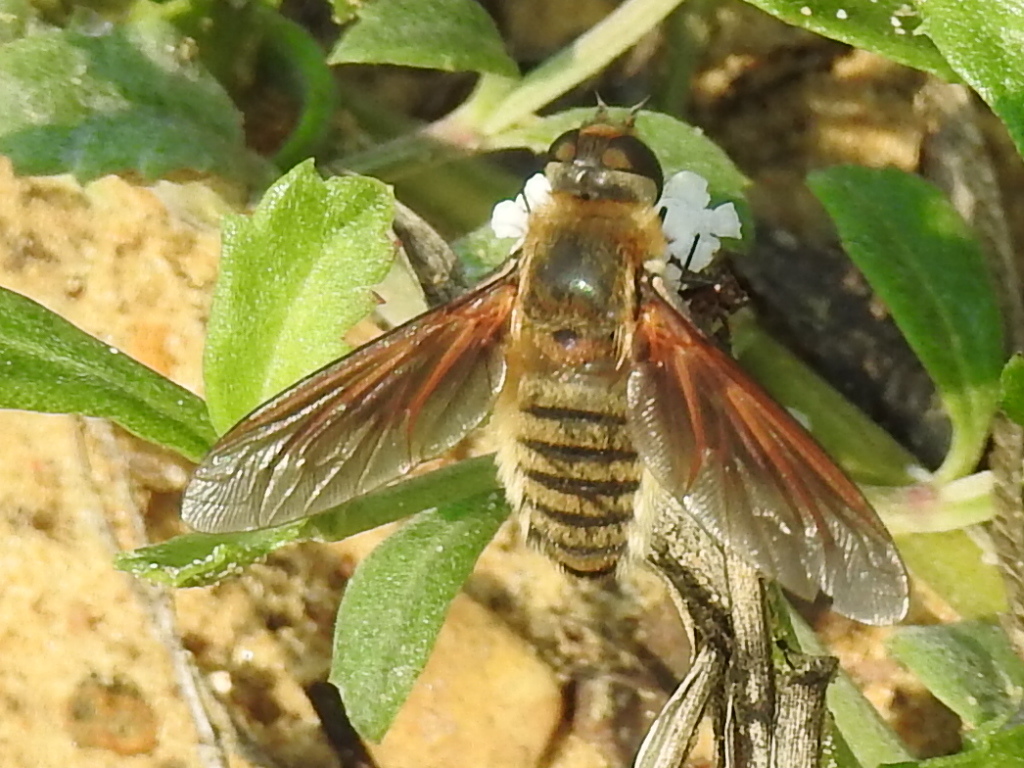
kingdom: Animalia
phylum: Arthropoda
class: Insecta
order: Diptera
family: Bombyliidae
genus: Poecilanthrax
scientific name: Poecilanthrax lucifer
